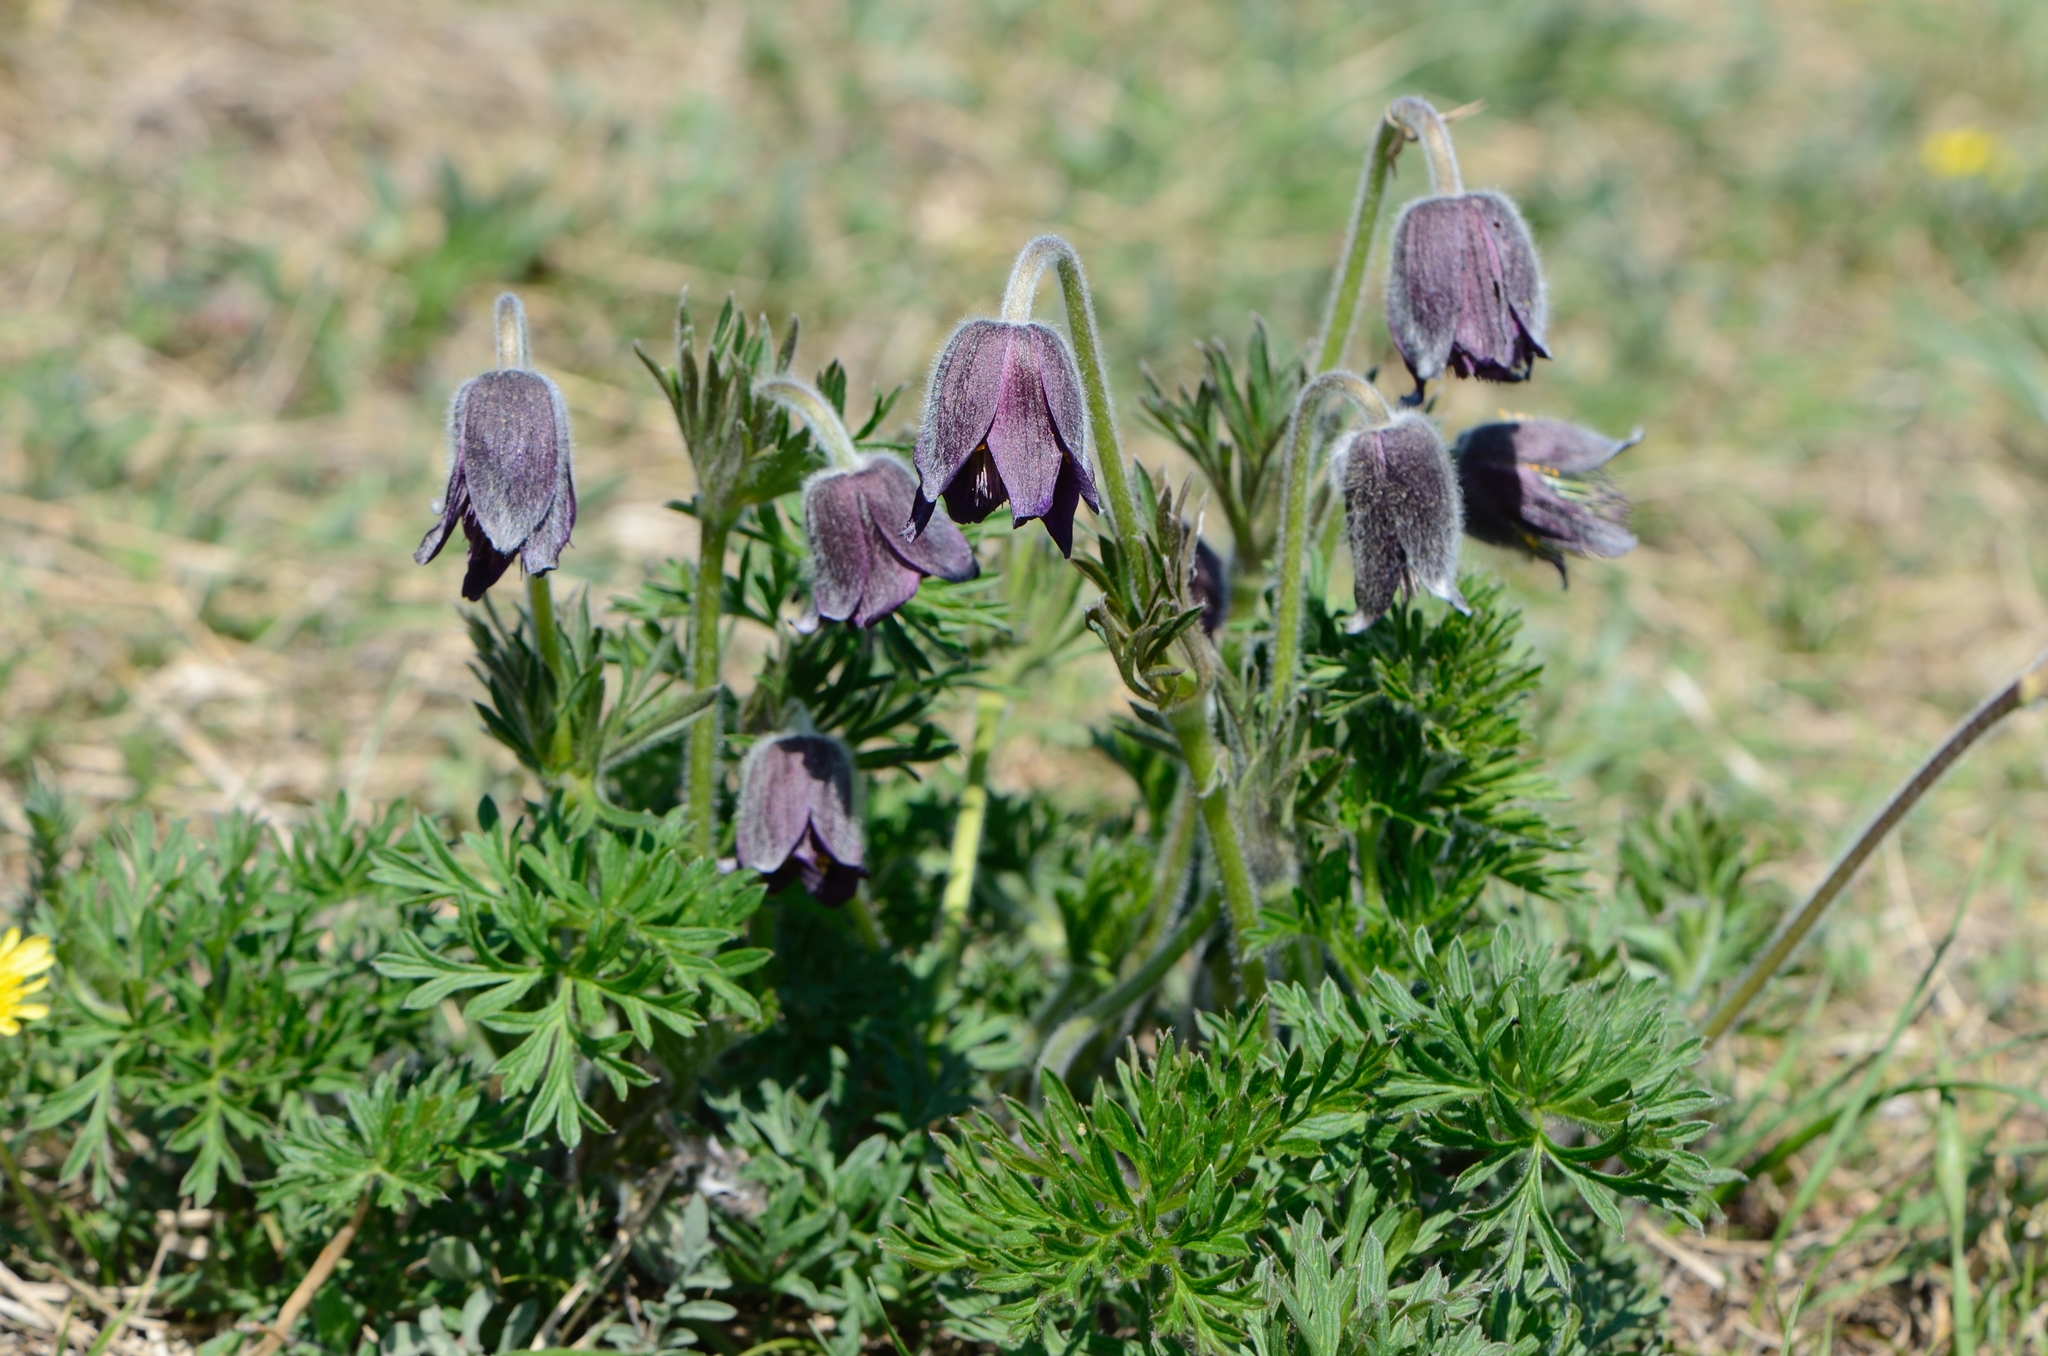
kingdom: Plantae
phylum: Tracheophyta
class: Magnoliopsida
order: Ranunculales
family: Ranunculaceae
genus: Pulsatilla
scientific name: Pulsatilla pratensis
